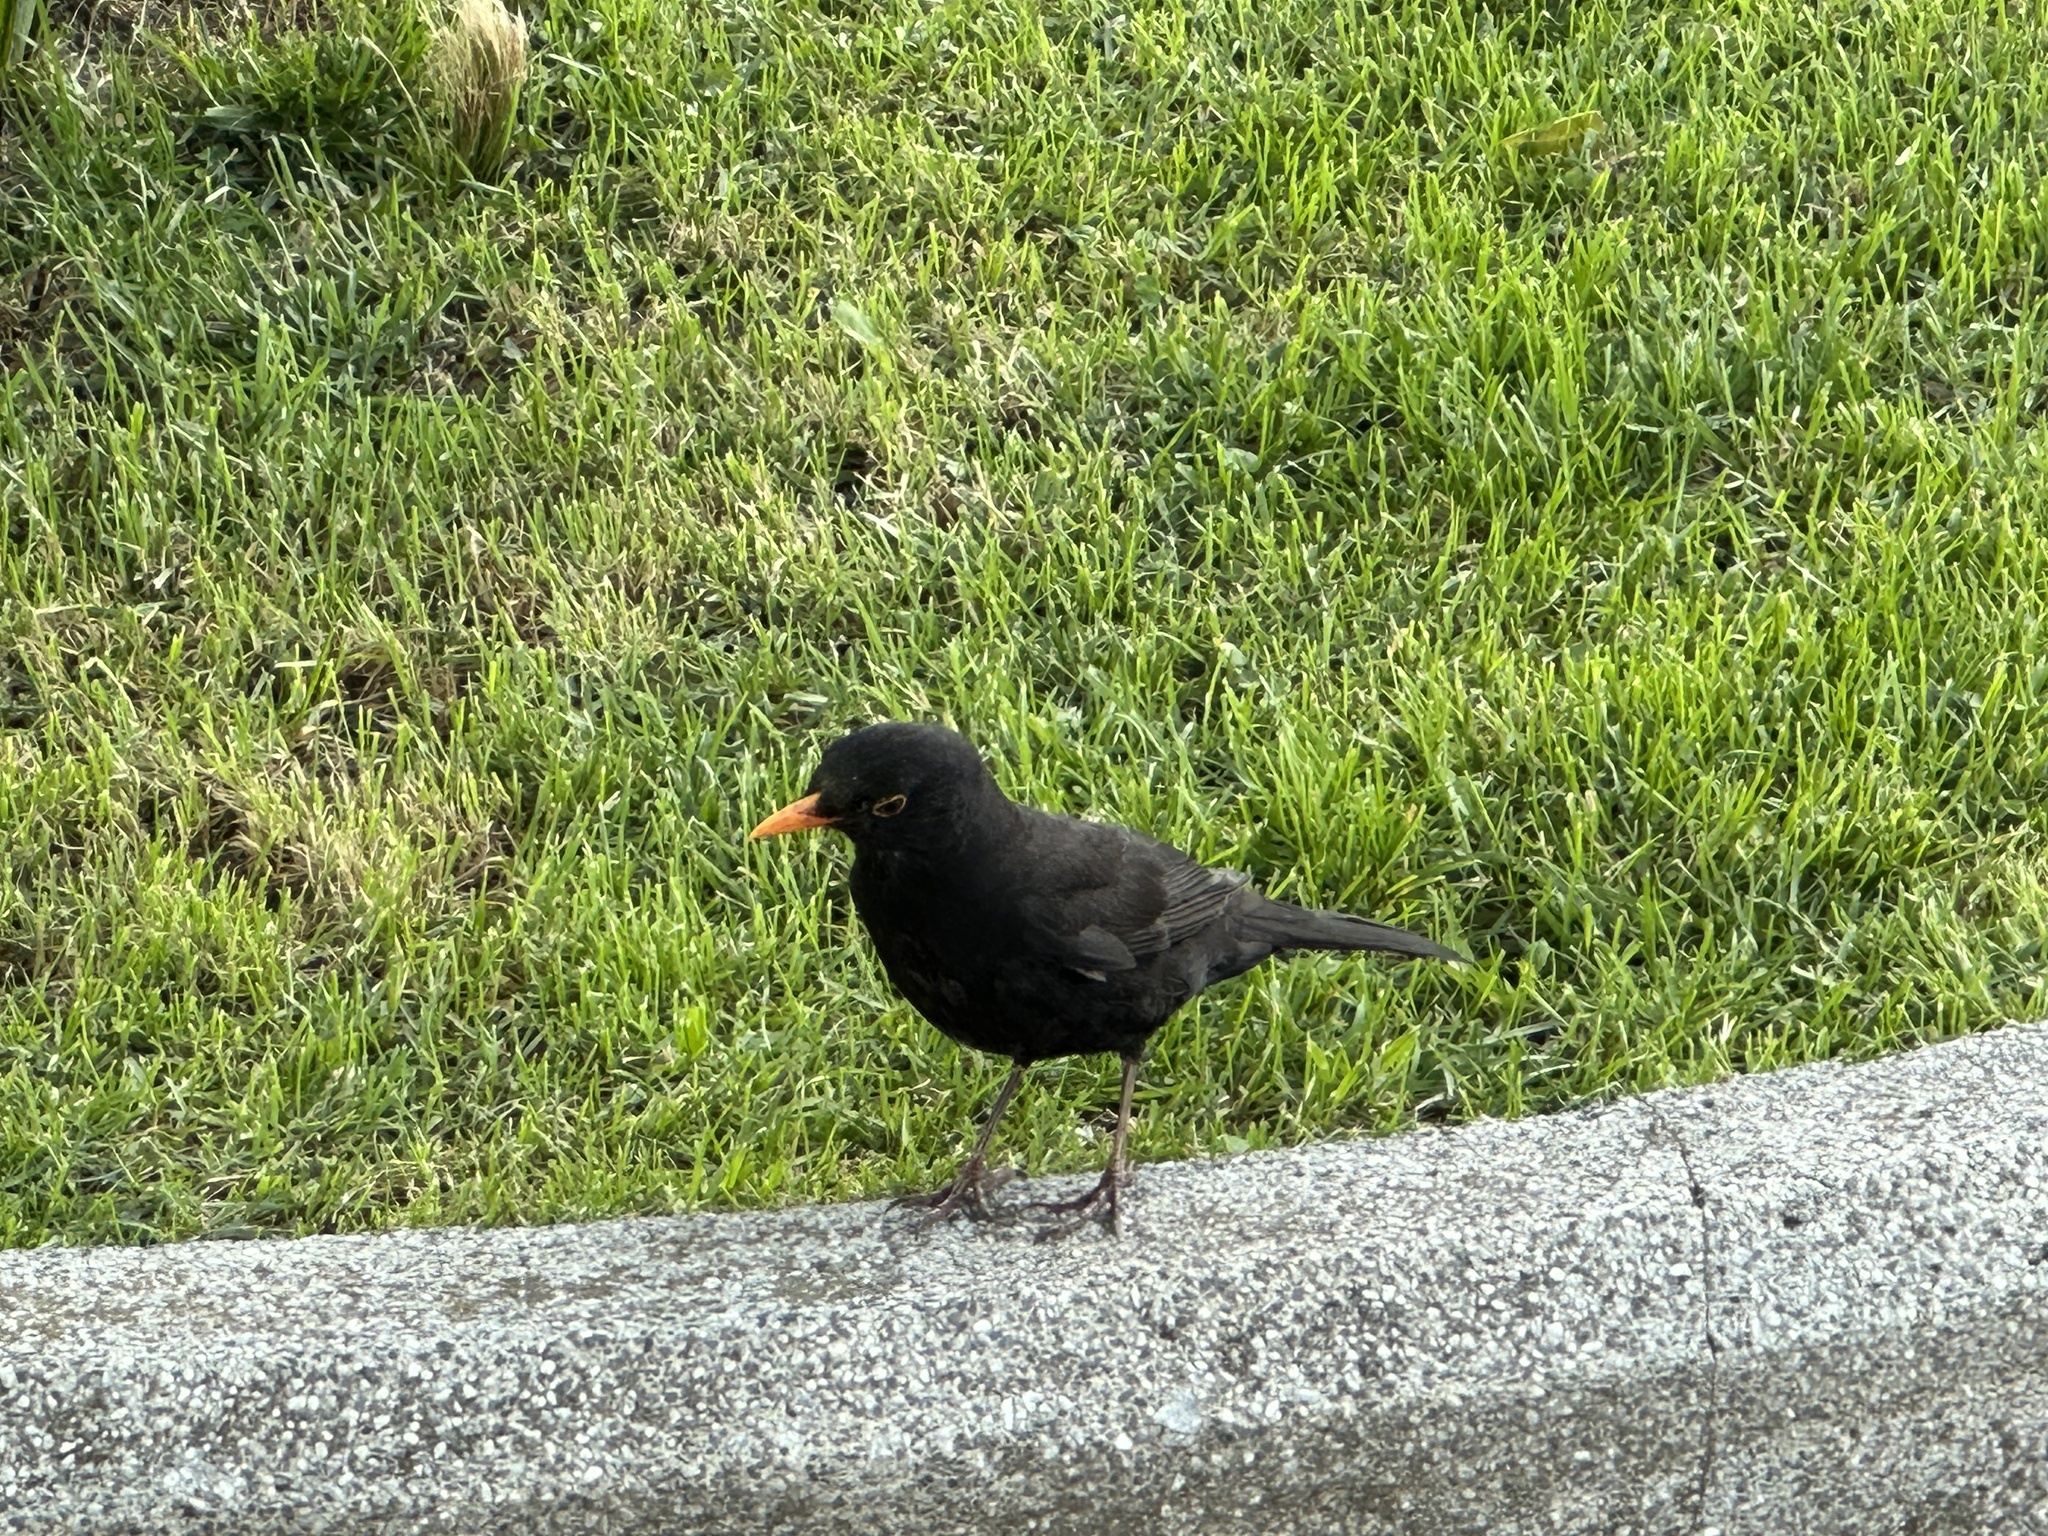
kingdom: Animalia
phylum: Chordata
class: Aves
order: Passeriformes
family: Turdidae
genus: Turdus
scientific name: Turdus merula
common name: Common blackbird
